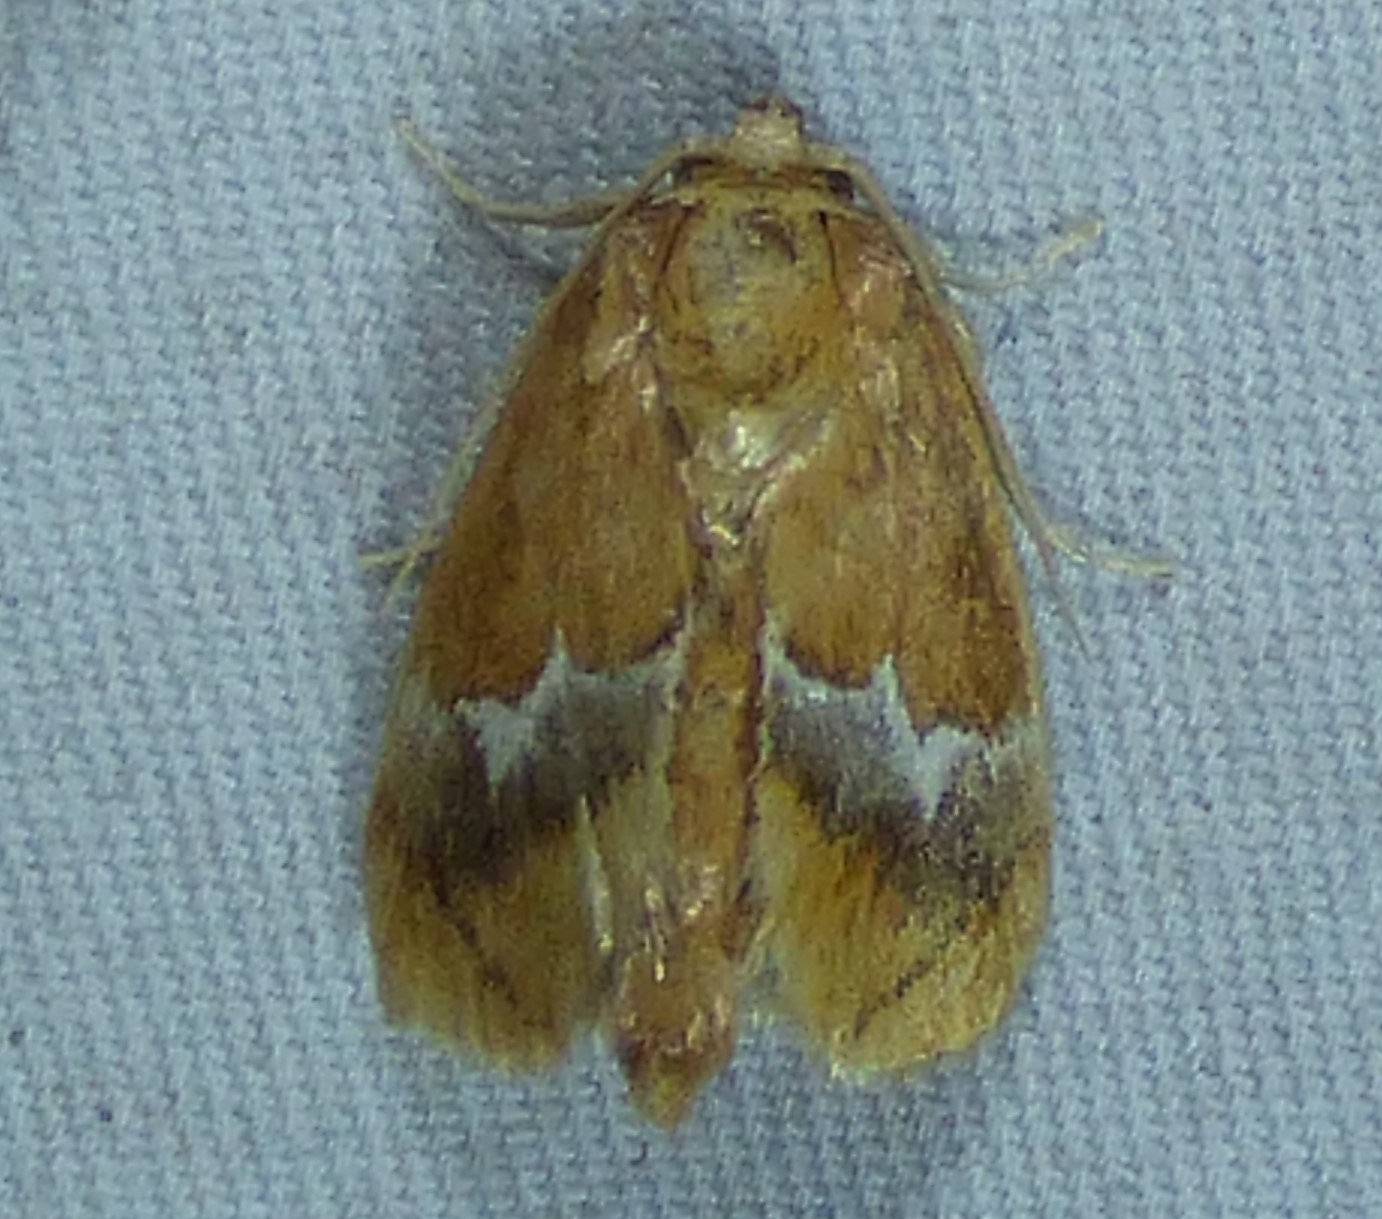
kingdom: Animalia
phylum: Arthropoda
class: Insecta
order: Lepidoptera
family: Limacodidae
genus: Lithacodes
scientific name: Lithacodes fasciola
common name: Yellow-shouldered slug moth
